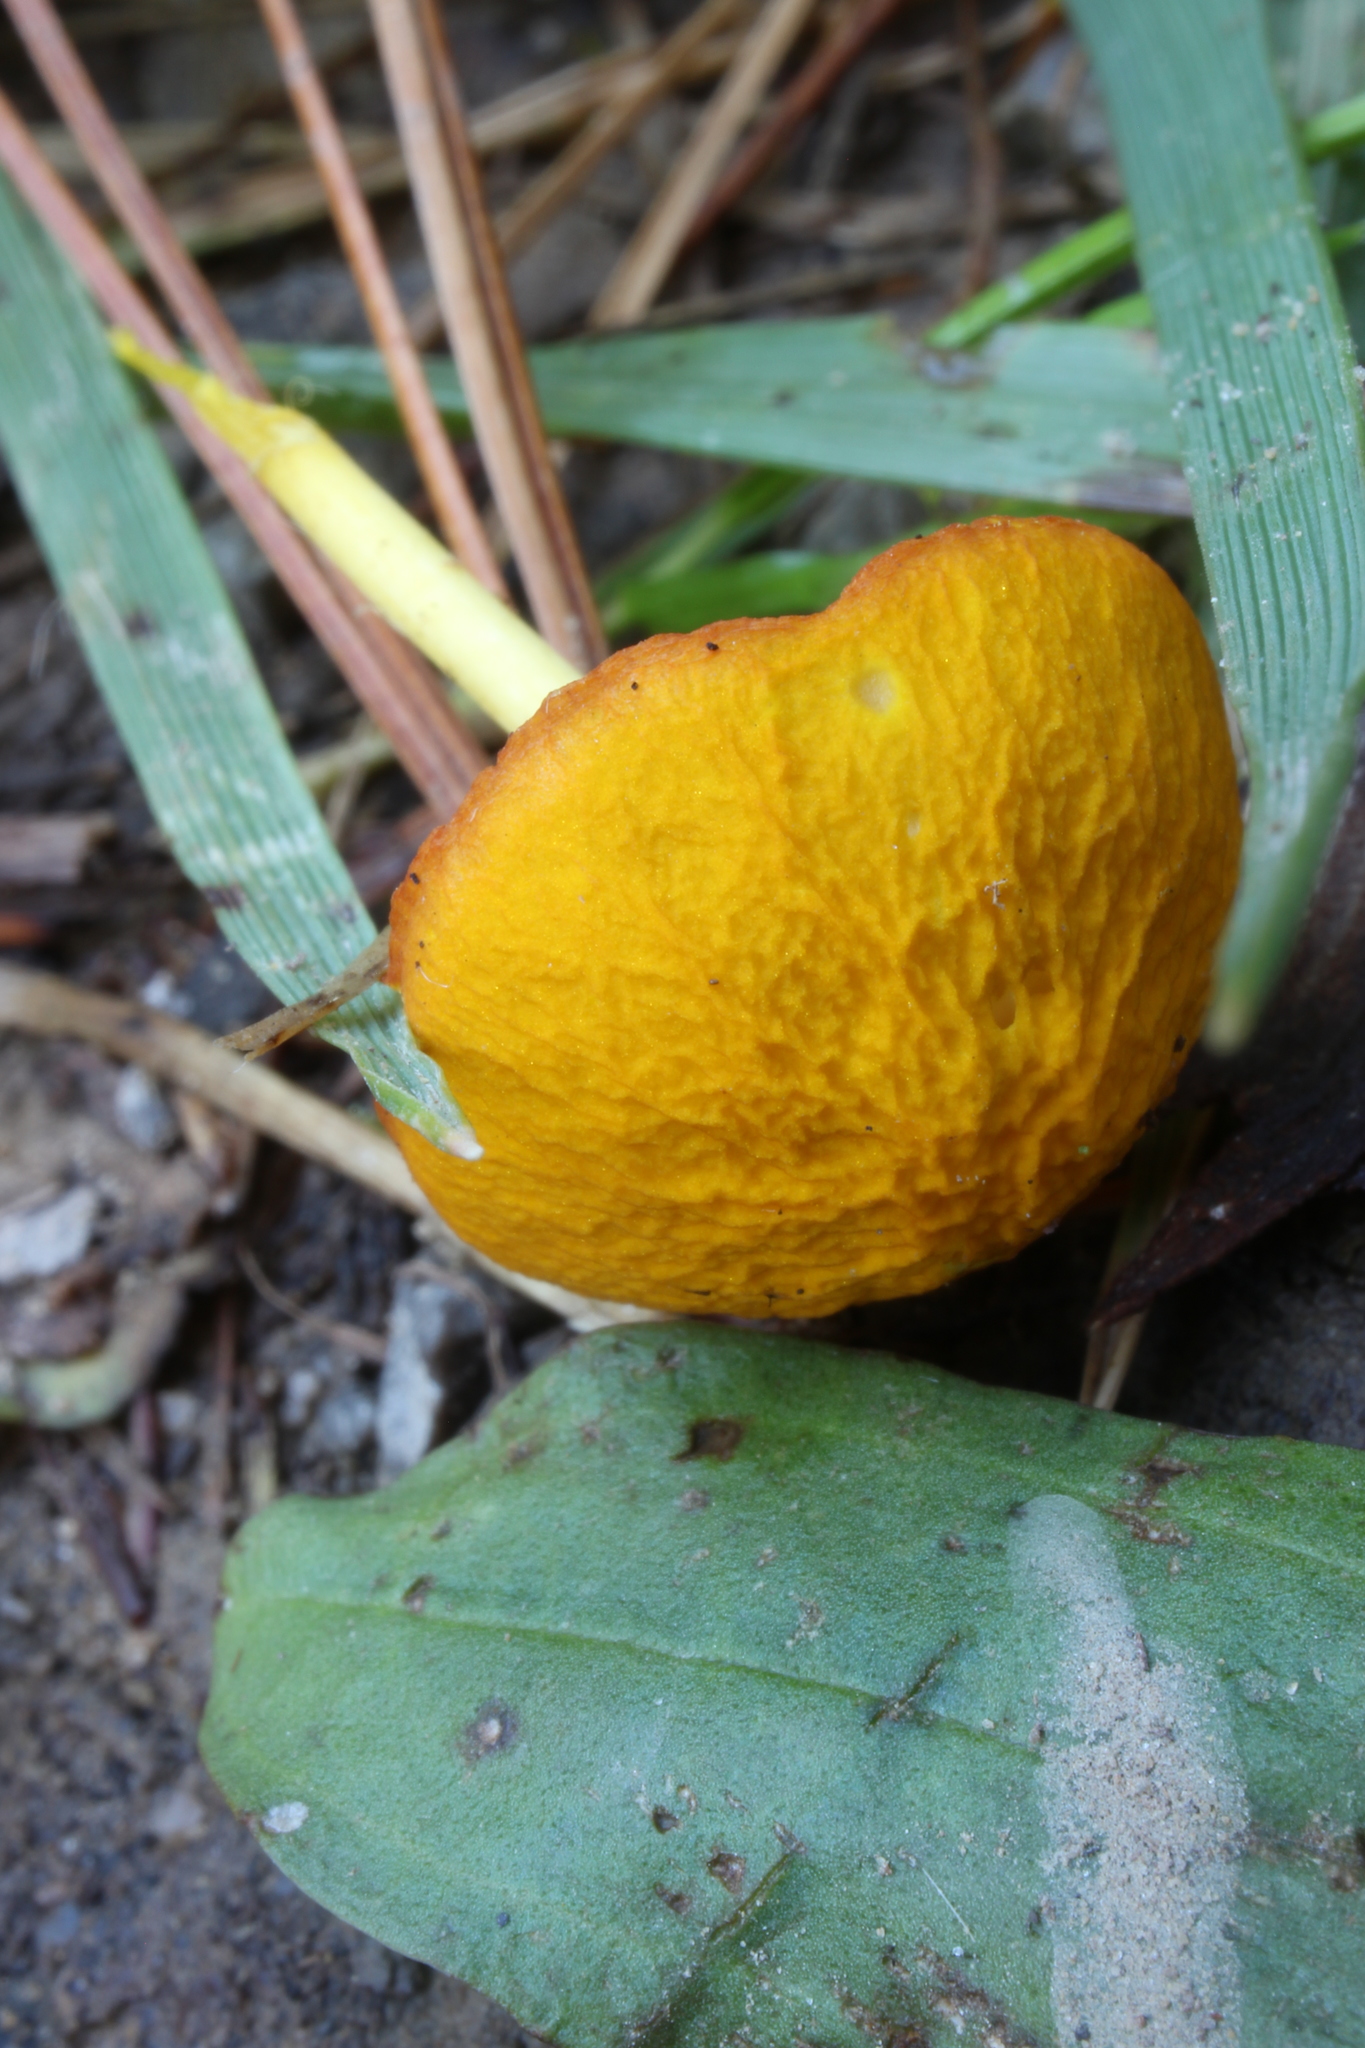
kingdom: Fungi
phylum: Basidiomycota
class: Agaricomycetes
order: Agaricales
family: Pluteaceae
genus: Pluteus
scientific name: Pluteus chrysophlebius
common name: Yellow deer mushroom
